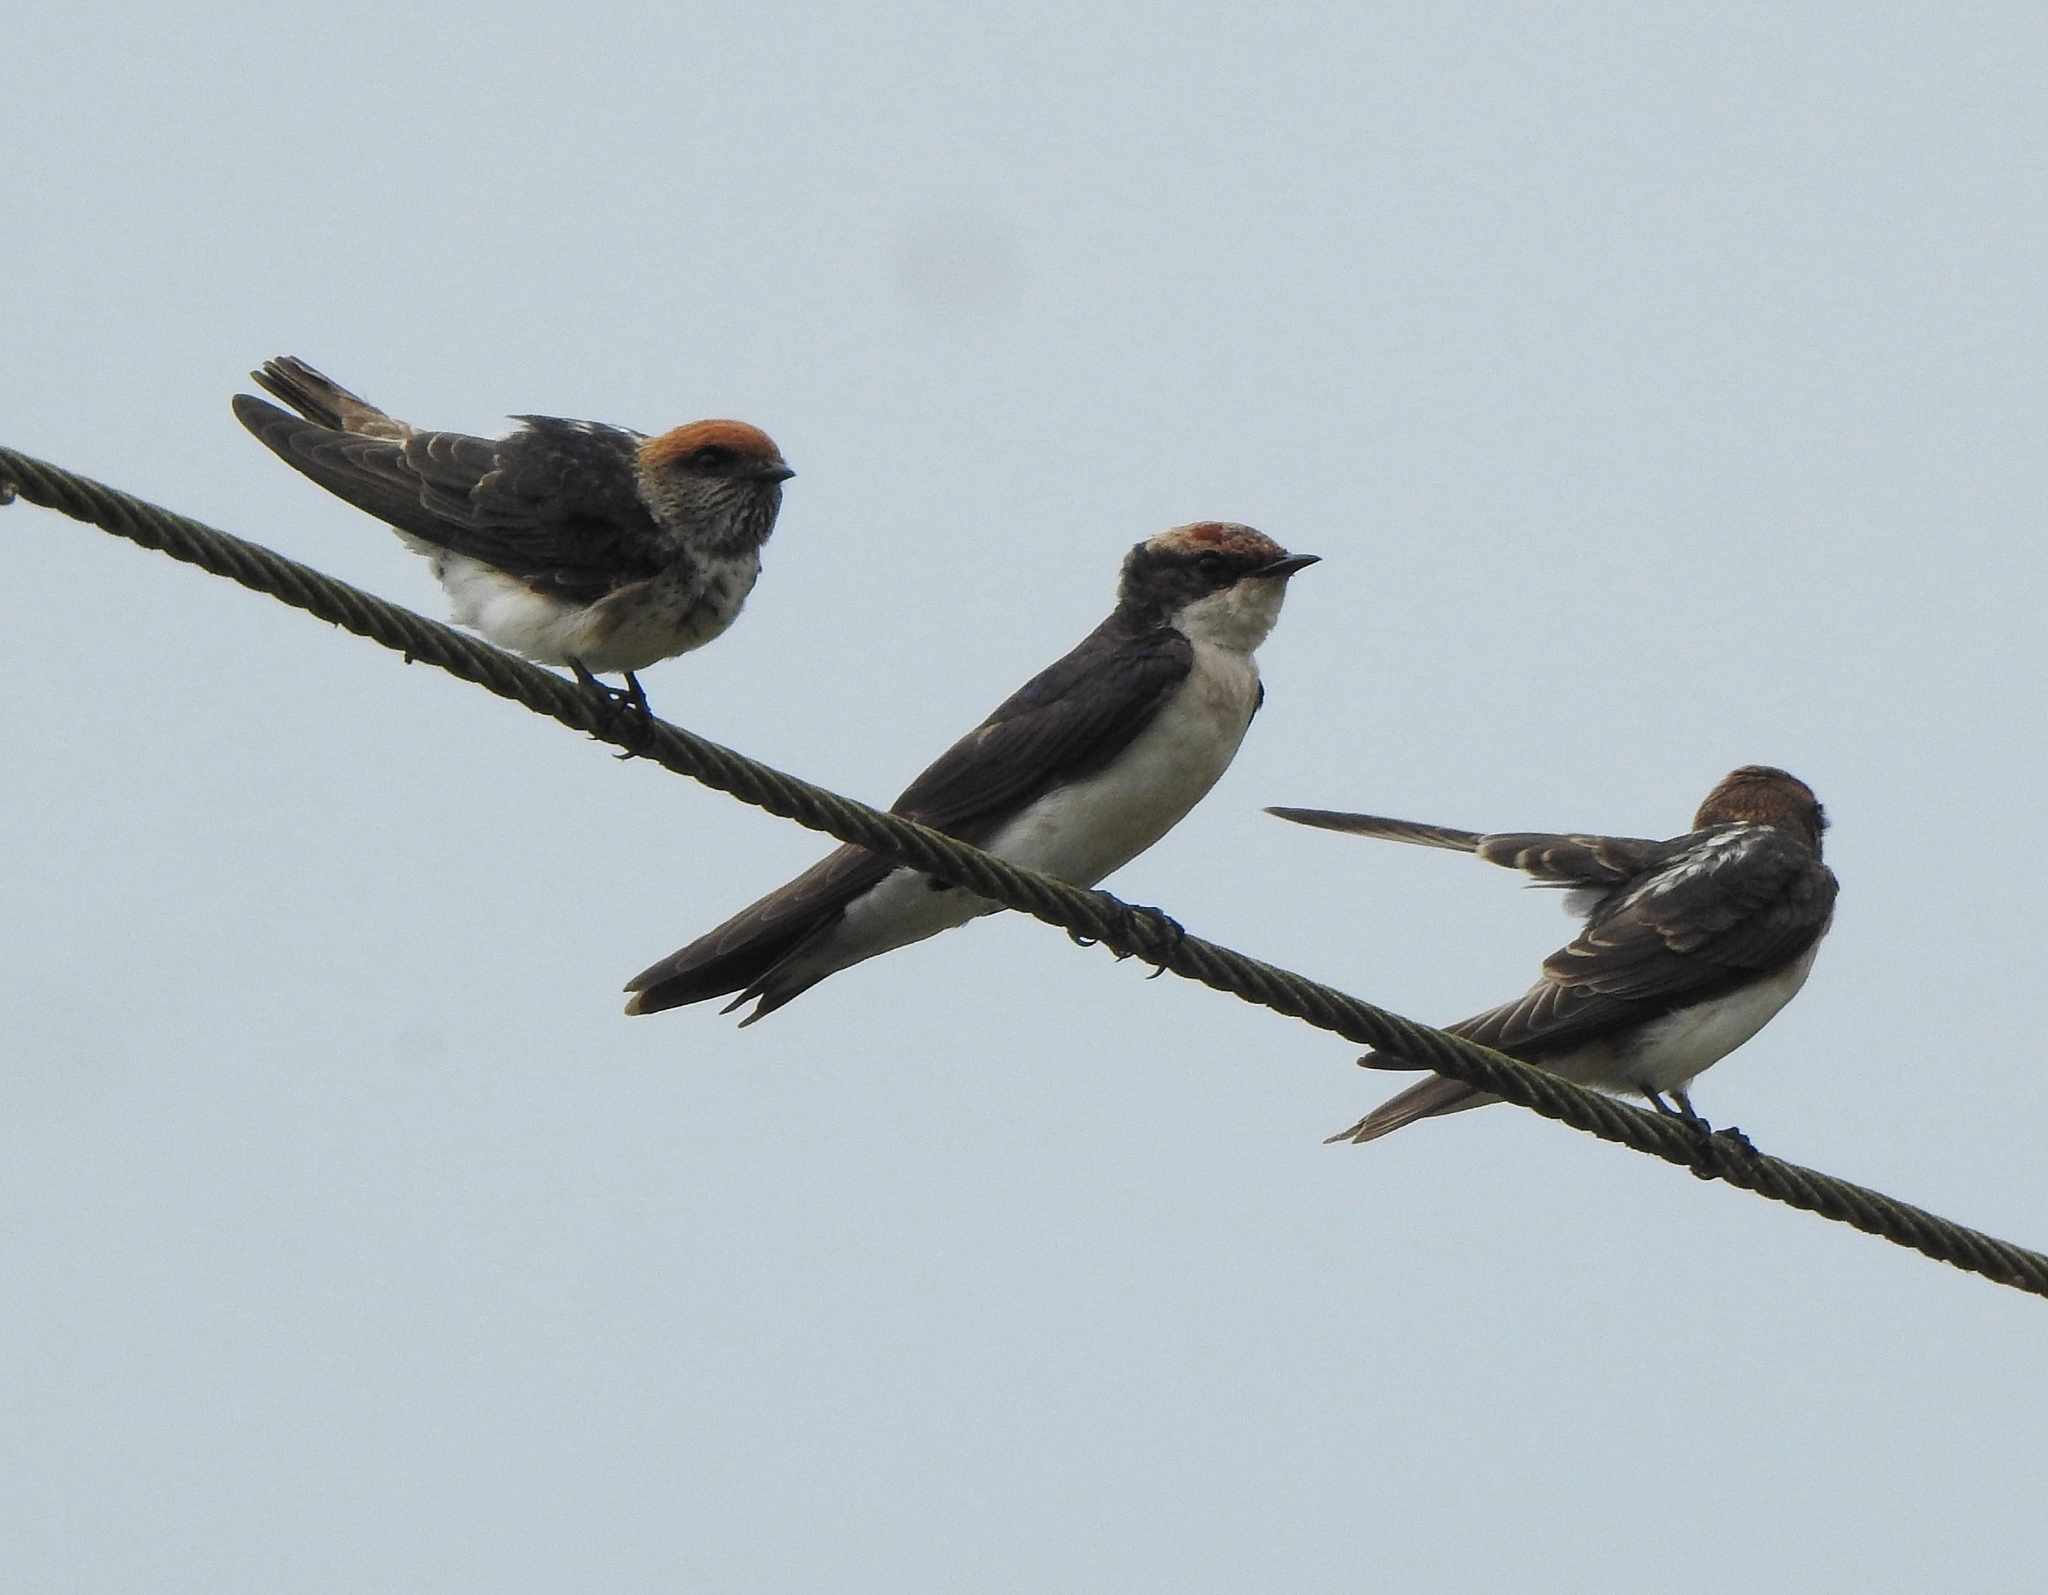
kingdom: Animalia
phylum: Chordata
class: Aves
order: Passeriformes
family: Hirundinidae
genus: Petrochelidon
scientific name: Petrochelidon fluvicola
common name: Streak-throated swallow
